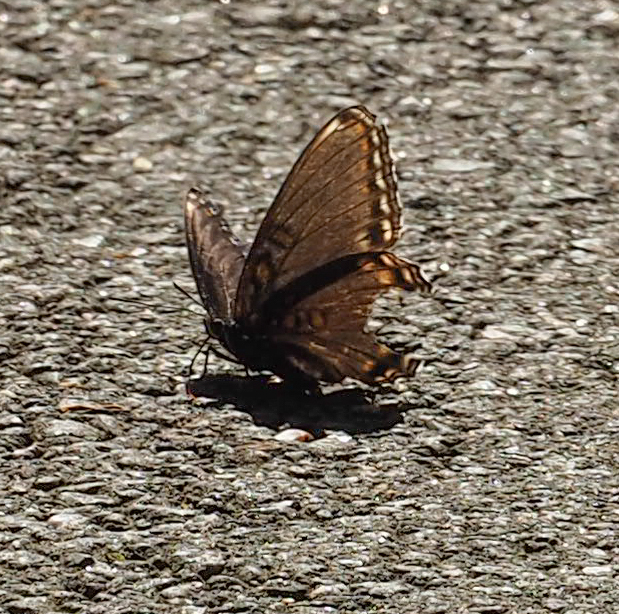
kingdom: Animalia
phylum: Arthropoda
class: Insecta
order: Lepidoptera
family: Nymphalidae
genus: Limenitis
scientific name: Limenitis astyanax
